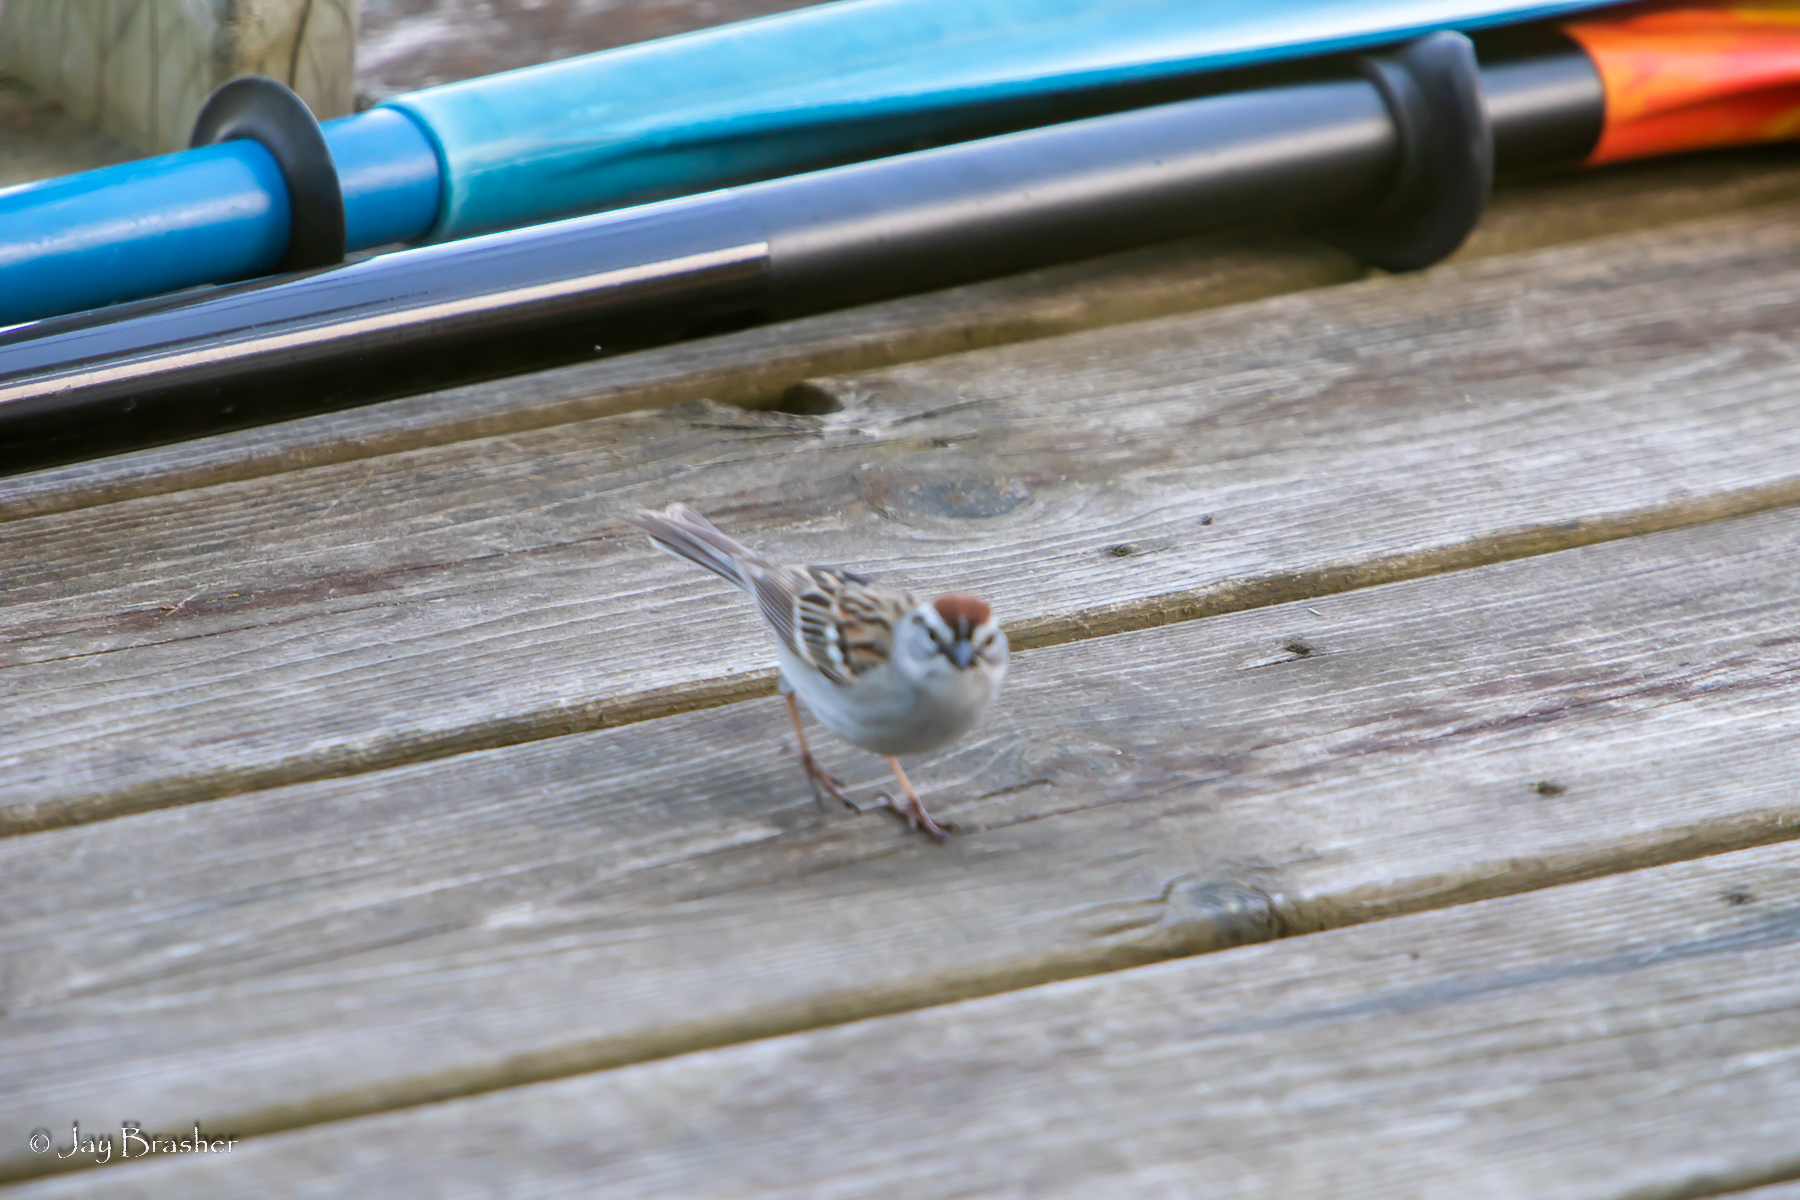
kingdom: Animalia
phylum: Chordata
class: Aves
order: Passeriformes
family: Passerellidae
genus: Spizella
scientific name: Spizella passerina
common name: Chipping sparrow
